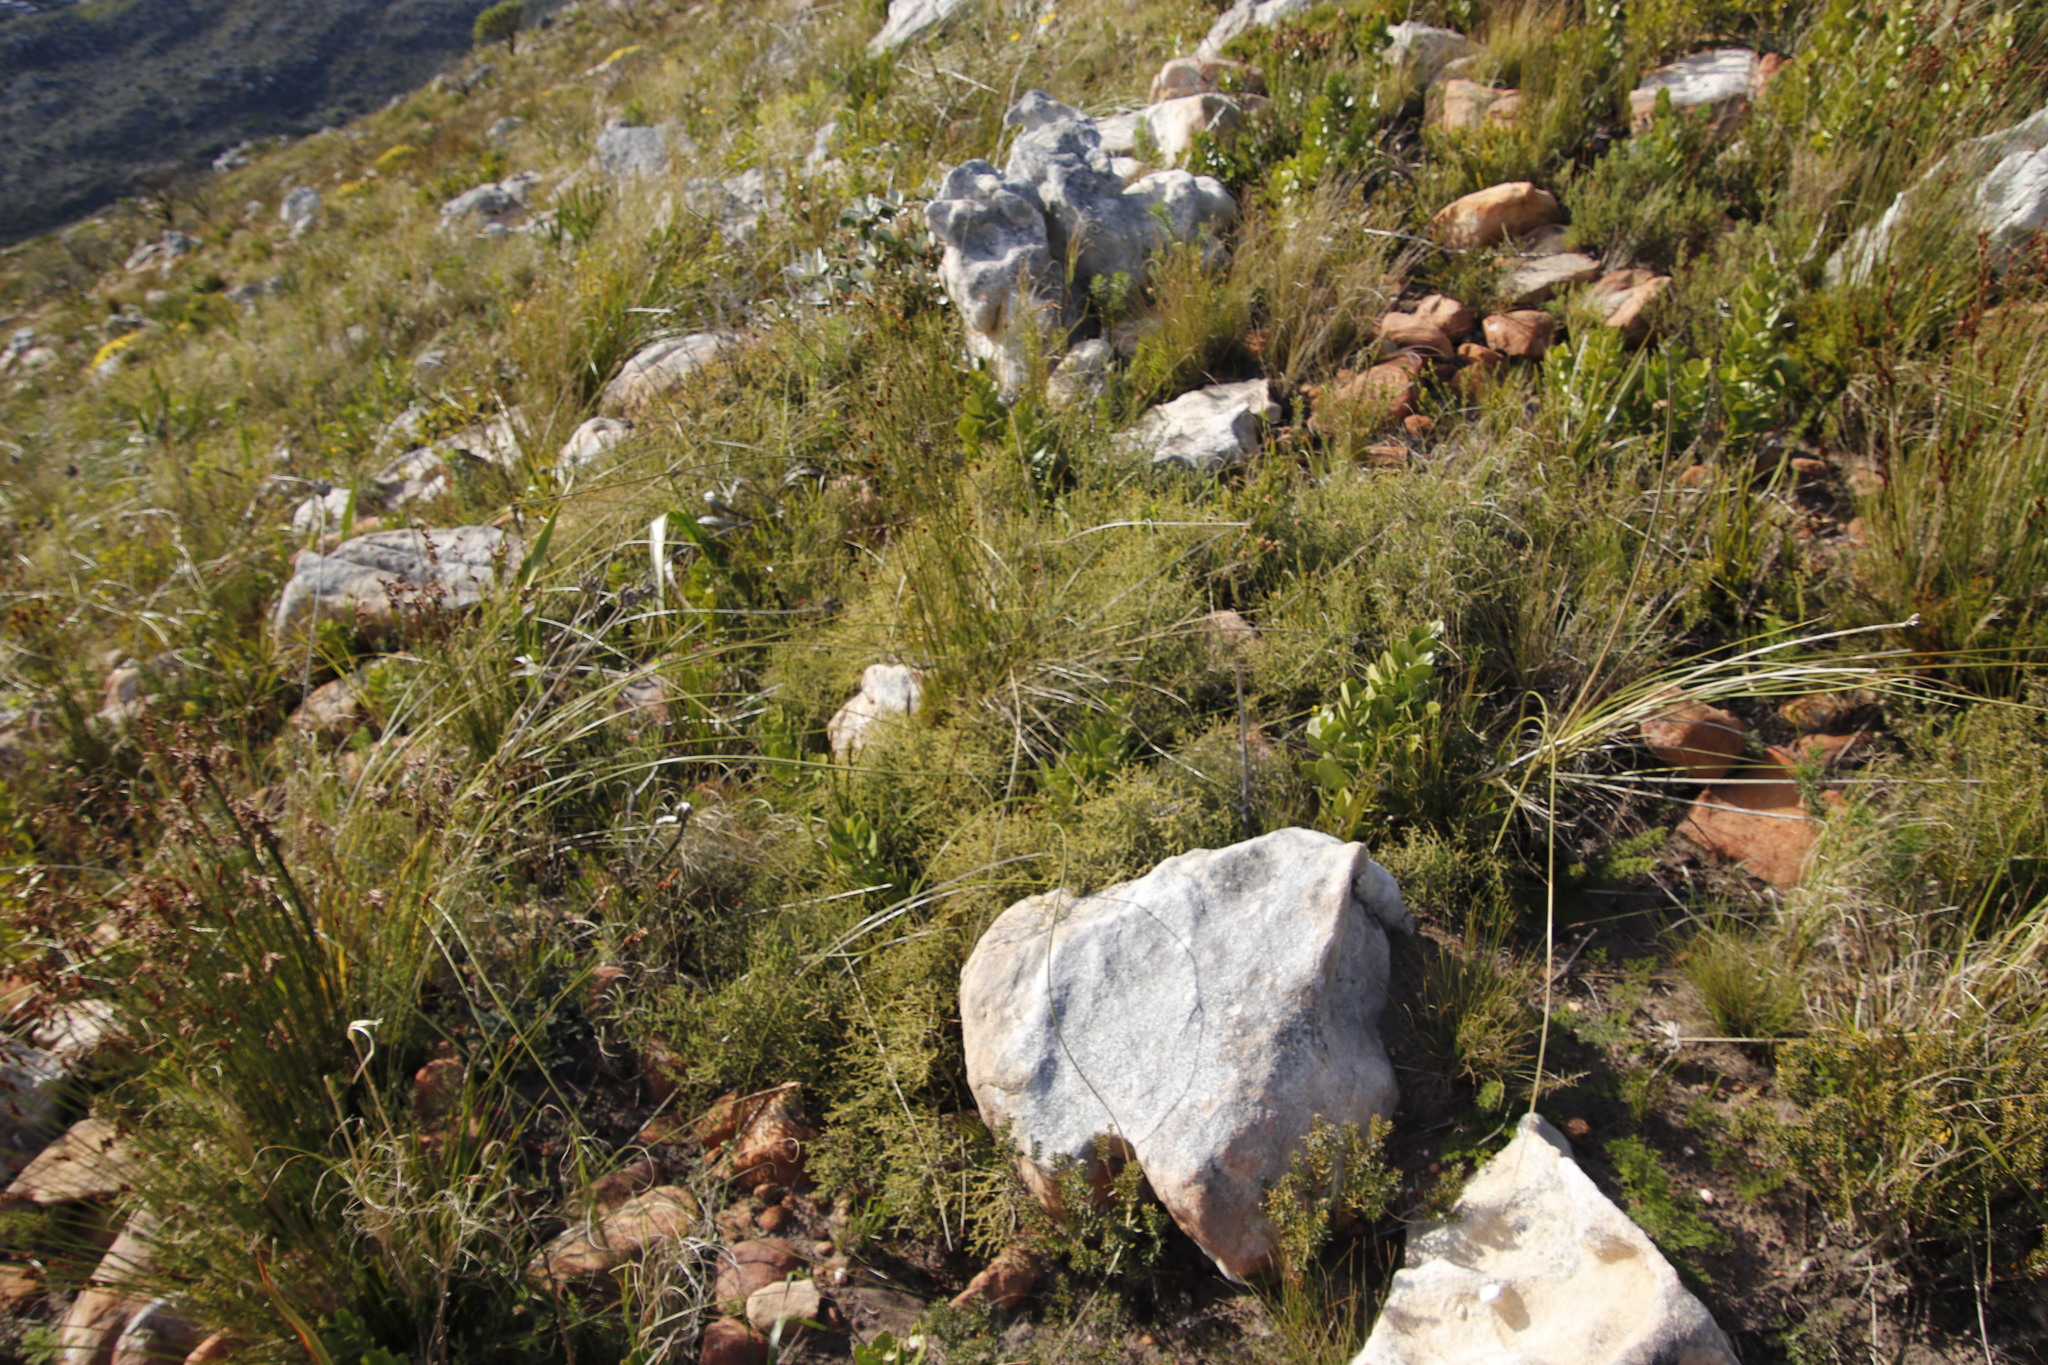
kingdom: Plantae
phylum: Tracheophyta
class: Liliopsida
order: Asparagales
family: Iridaceae
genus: Bobartia
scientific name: Bobartia indica
